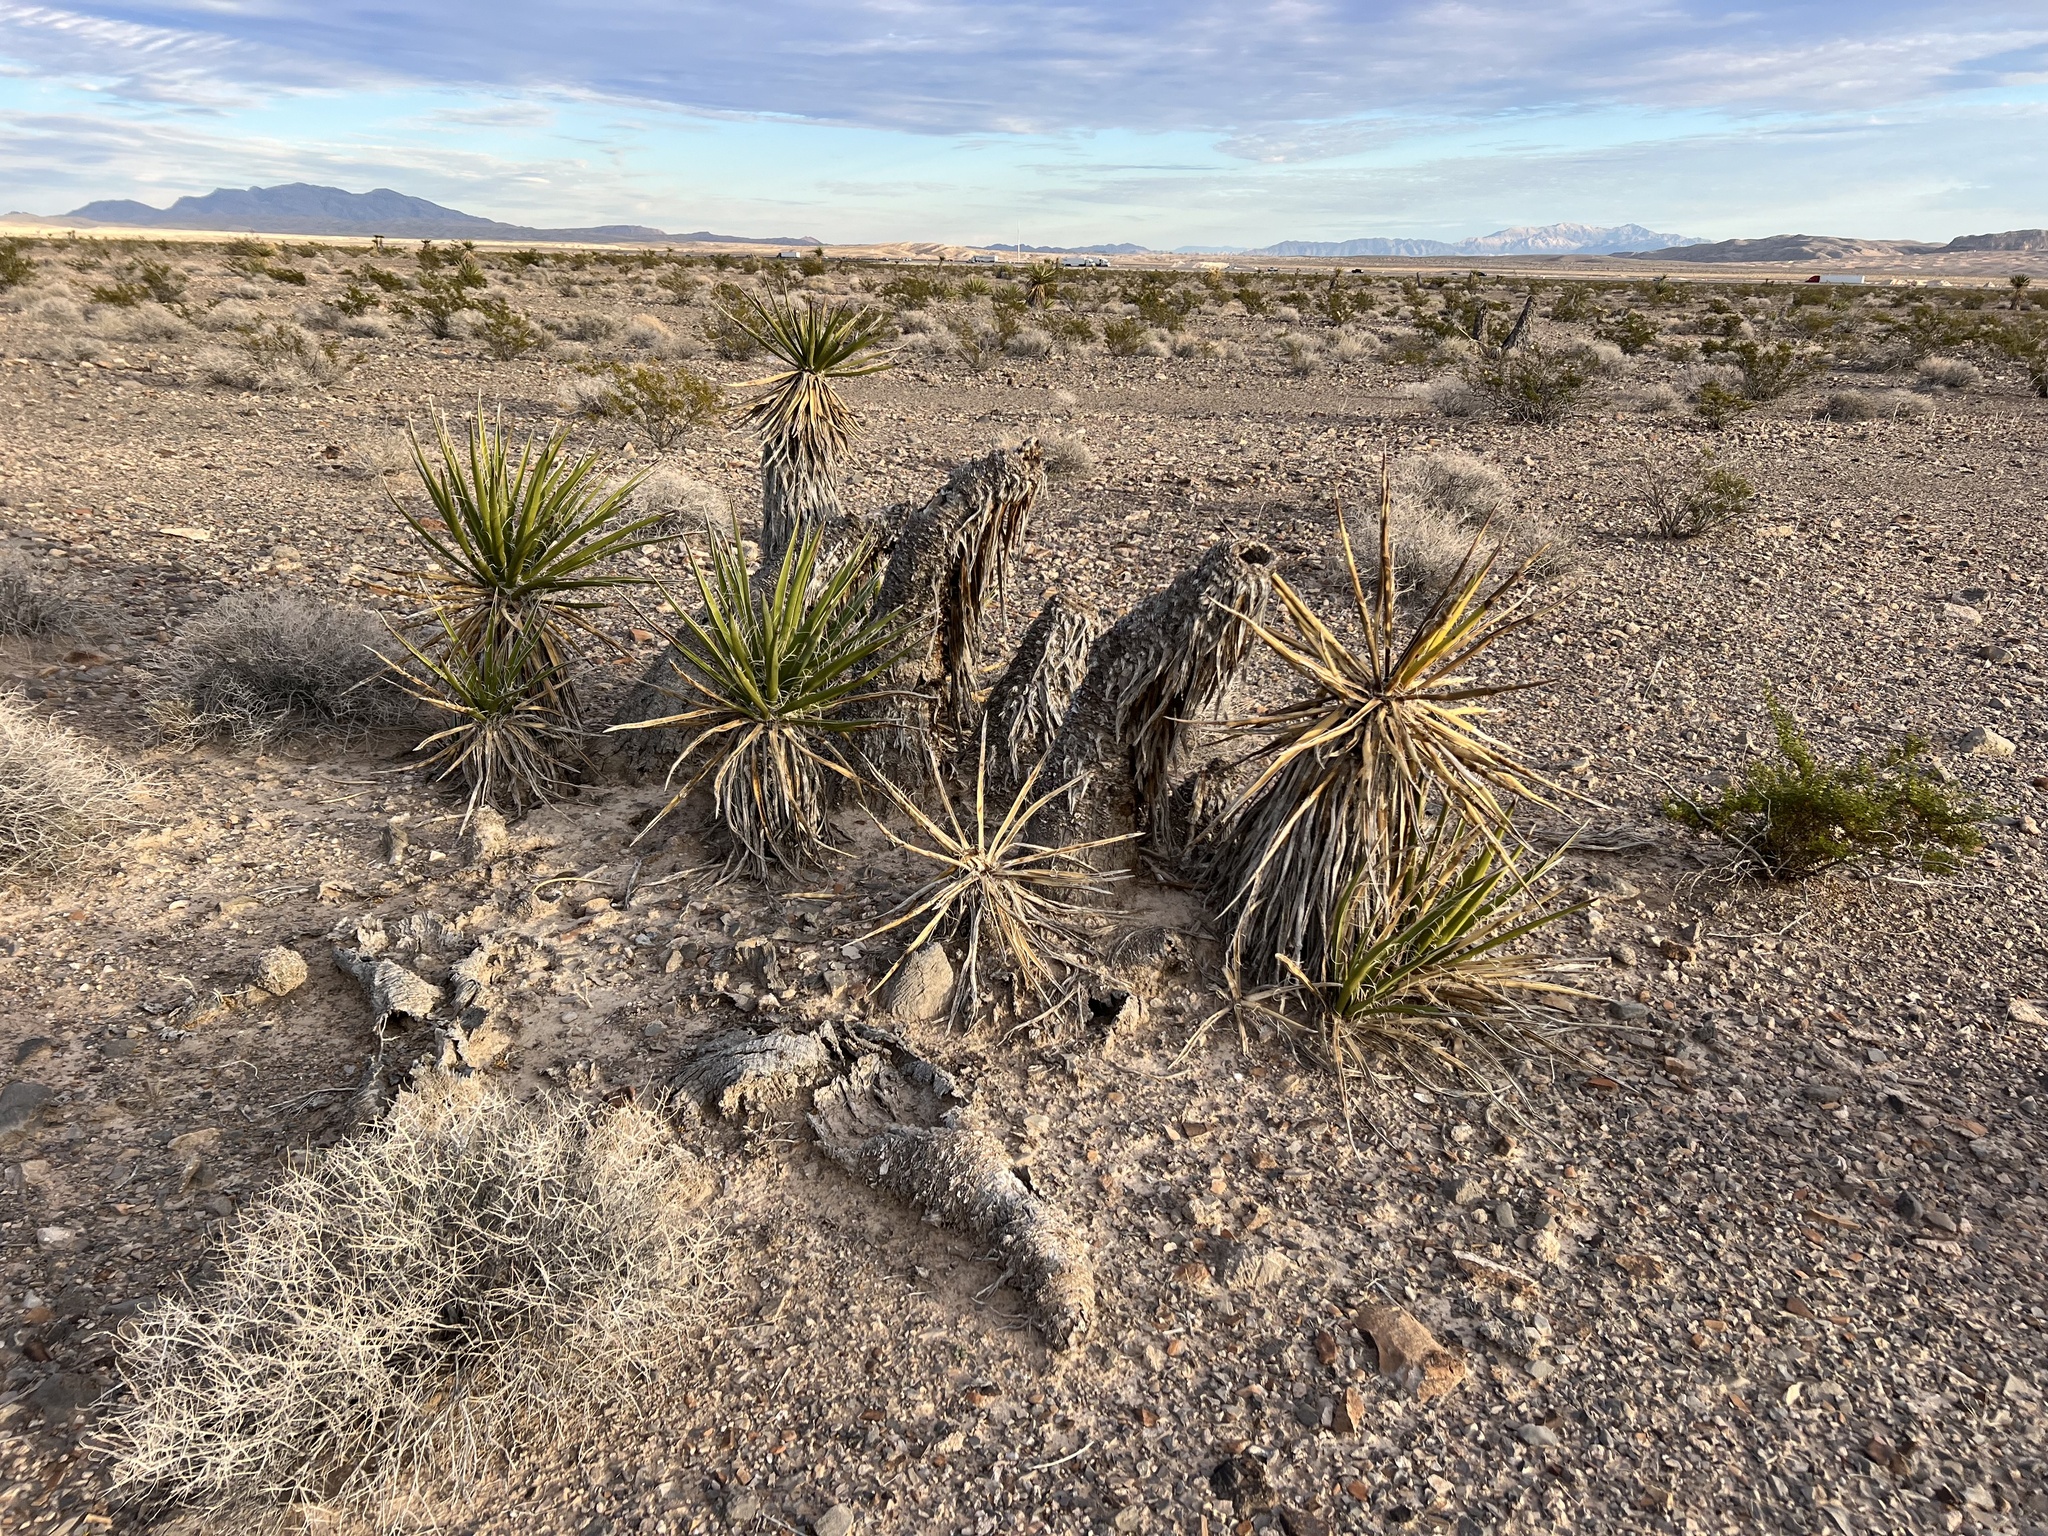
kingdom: Plantae
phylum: Tracheophyta
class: Liliopsida
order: Asparagales
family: Asparagaceae
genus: Yucca
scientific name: Yucca schidigera
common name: Mojave yucca
